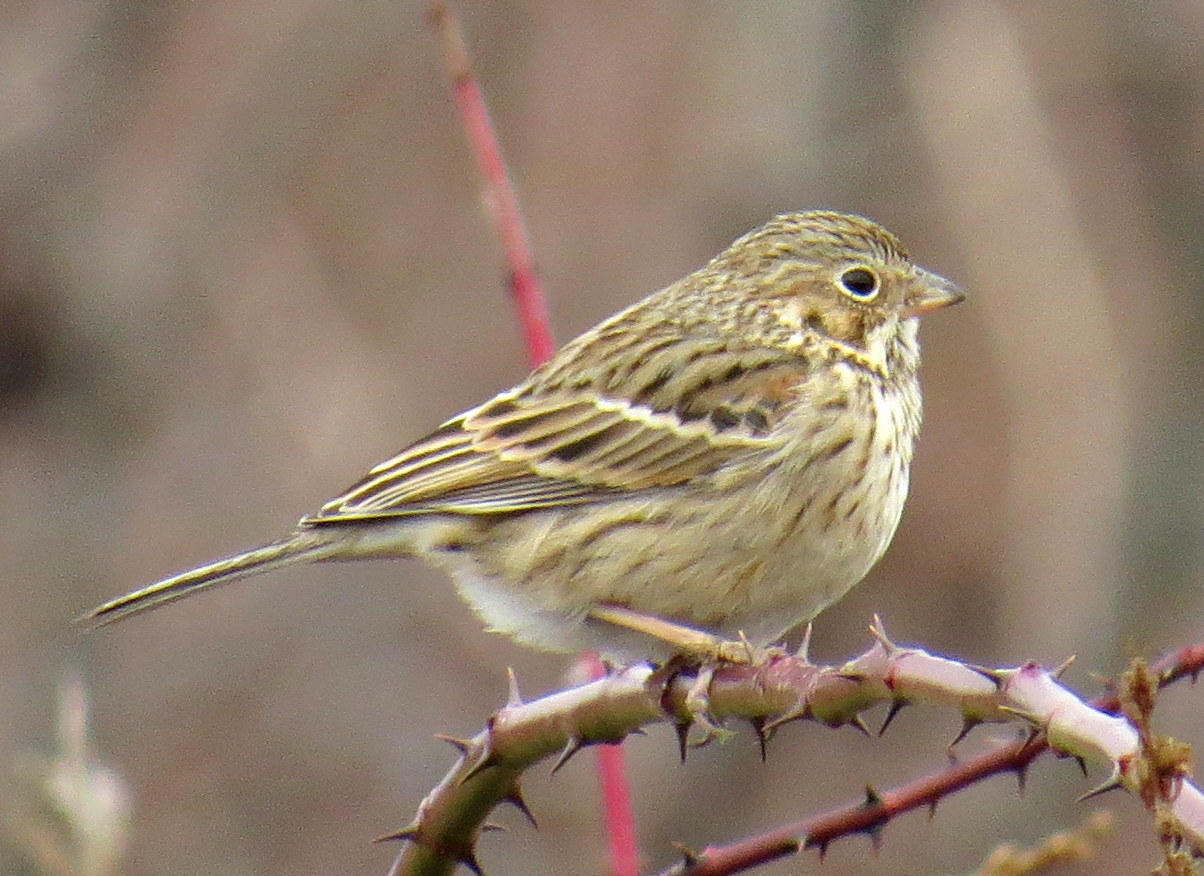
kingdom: Animalia
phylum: Chordata
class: Aves
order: Passeriformes
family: Passerellidae
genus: Pooecetes
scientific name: Pooecetes gramineus
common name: Vesper sparrow
